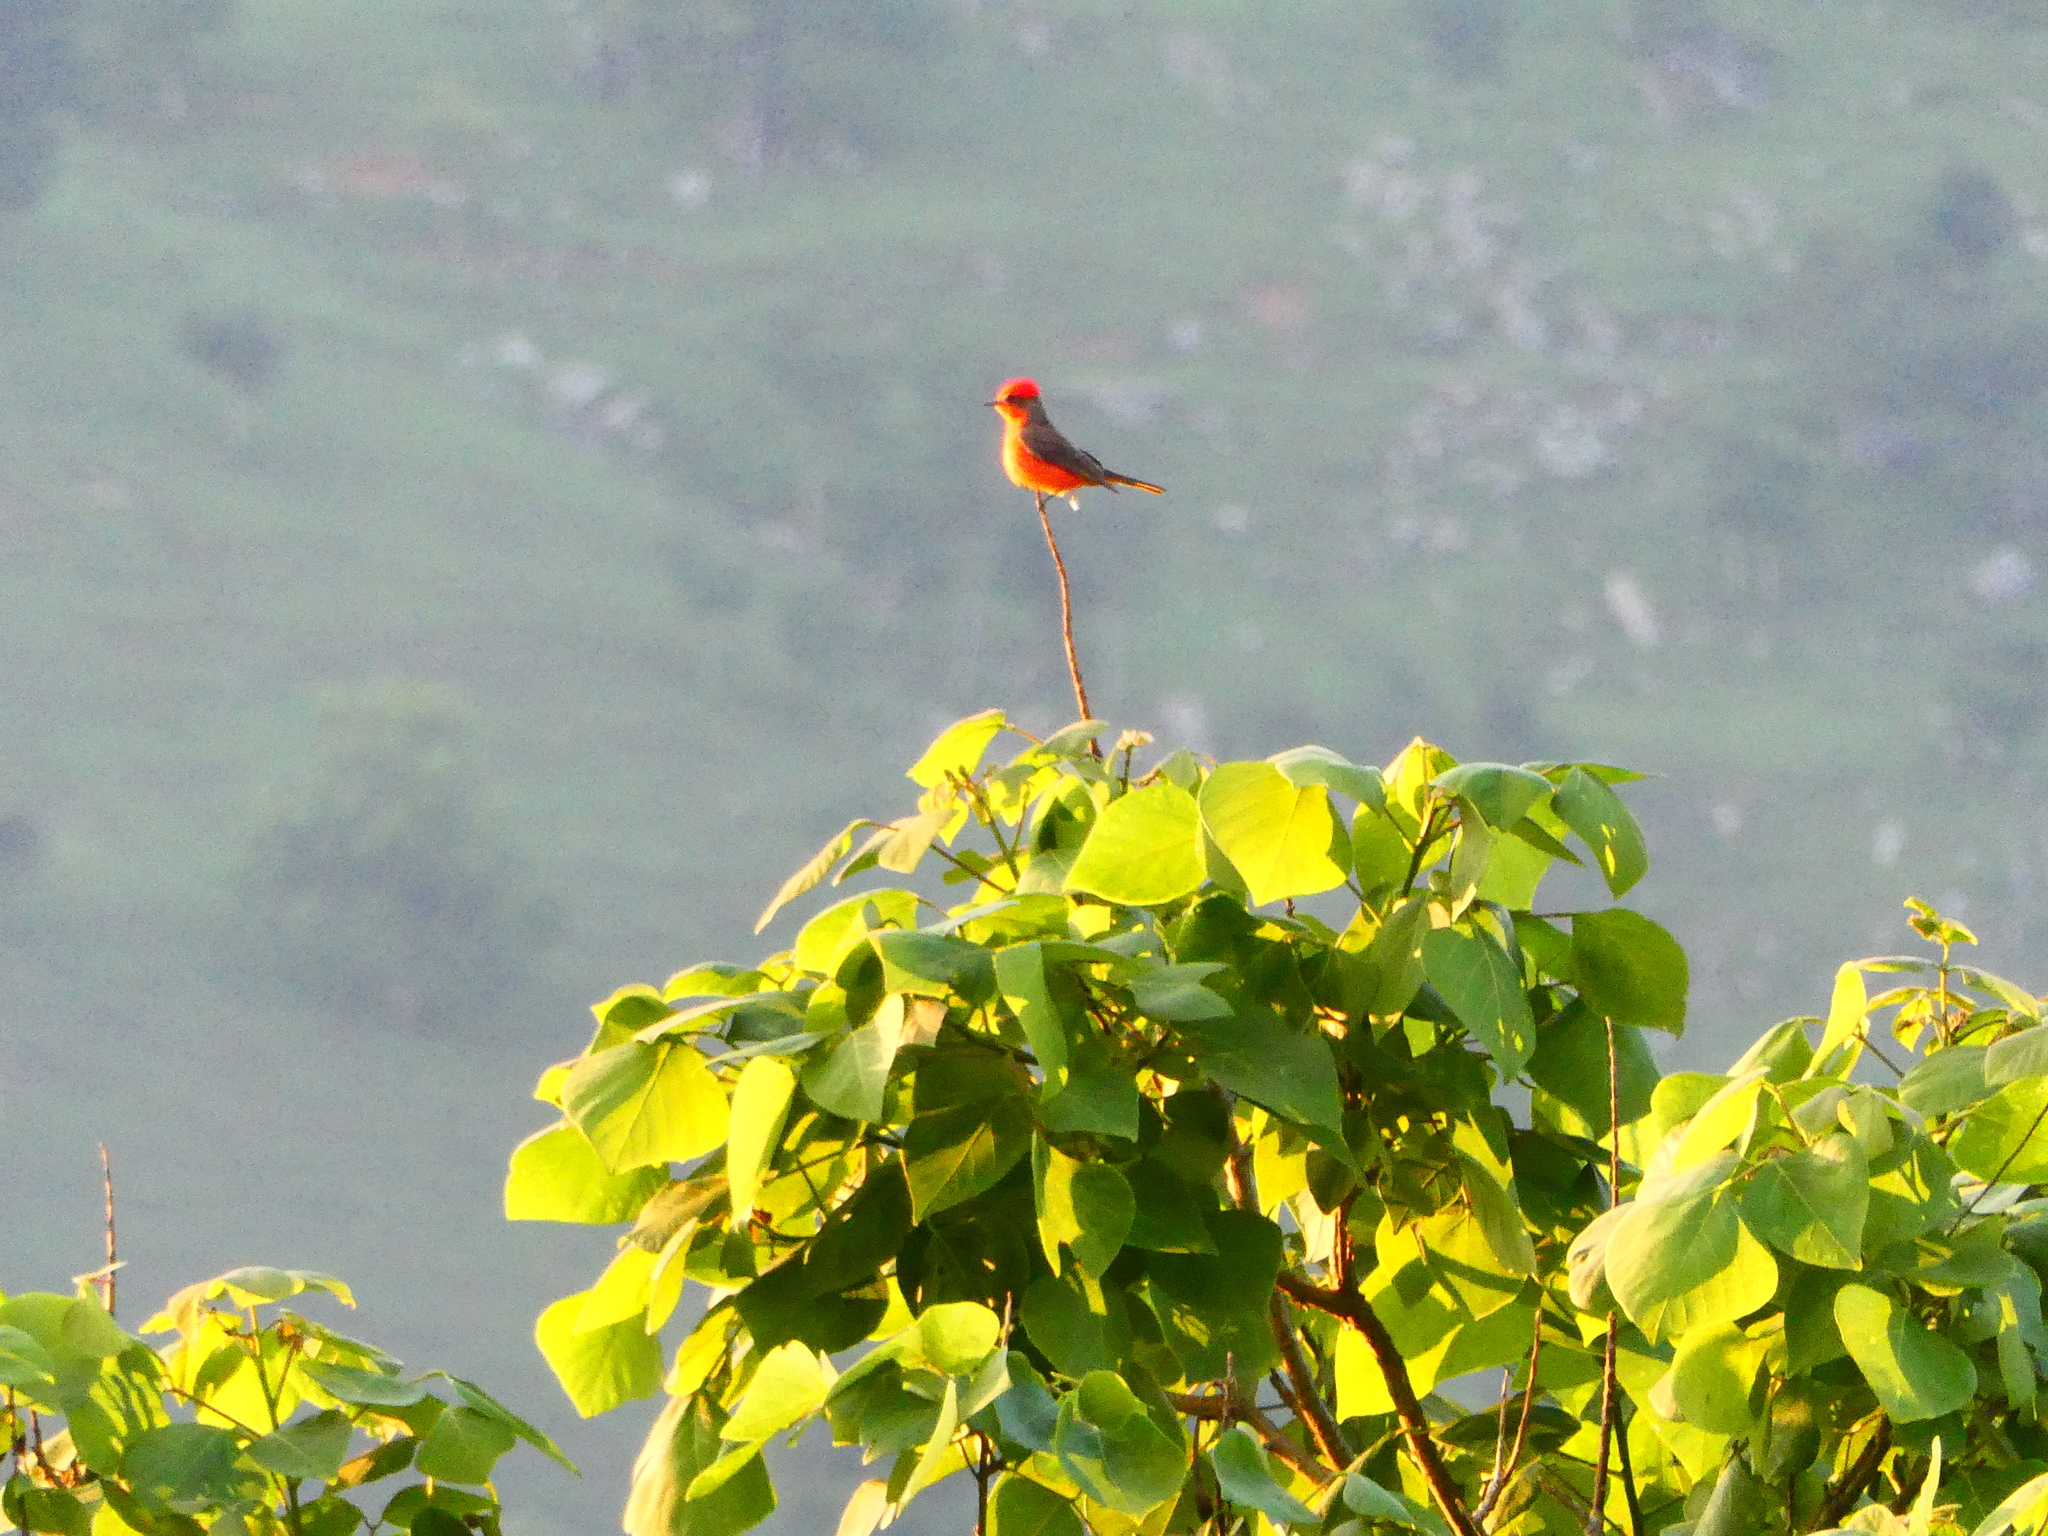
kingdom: Animalia
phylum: Chordata
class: Aves
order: Passeriformes
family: Tyrannidae
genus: Pyrocephalus
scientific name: Pyrocephalus rubinus
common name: Vermilion flycatcher
